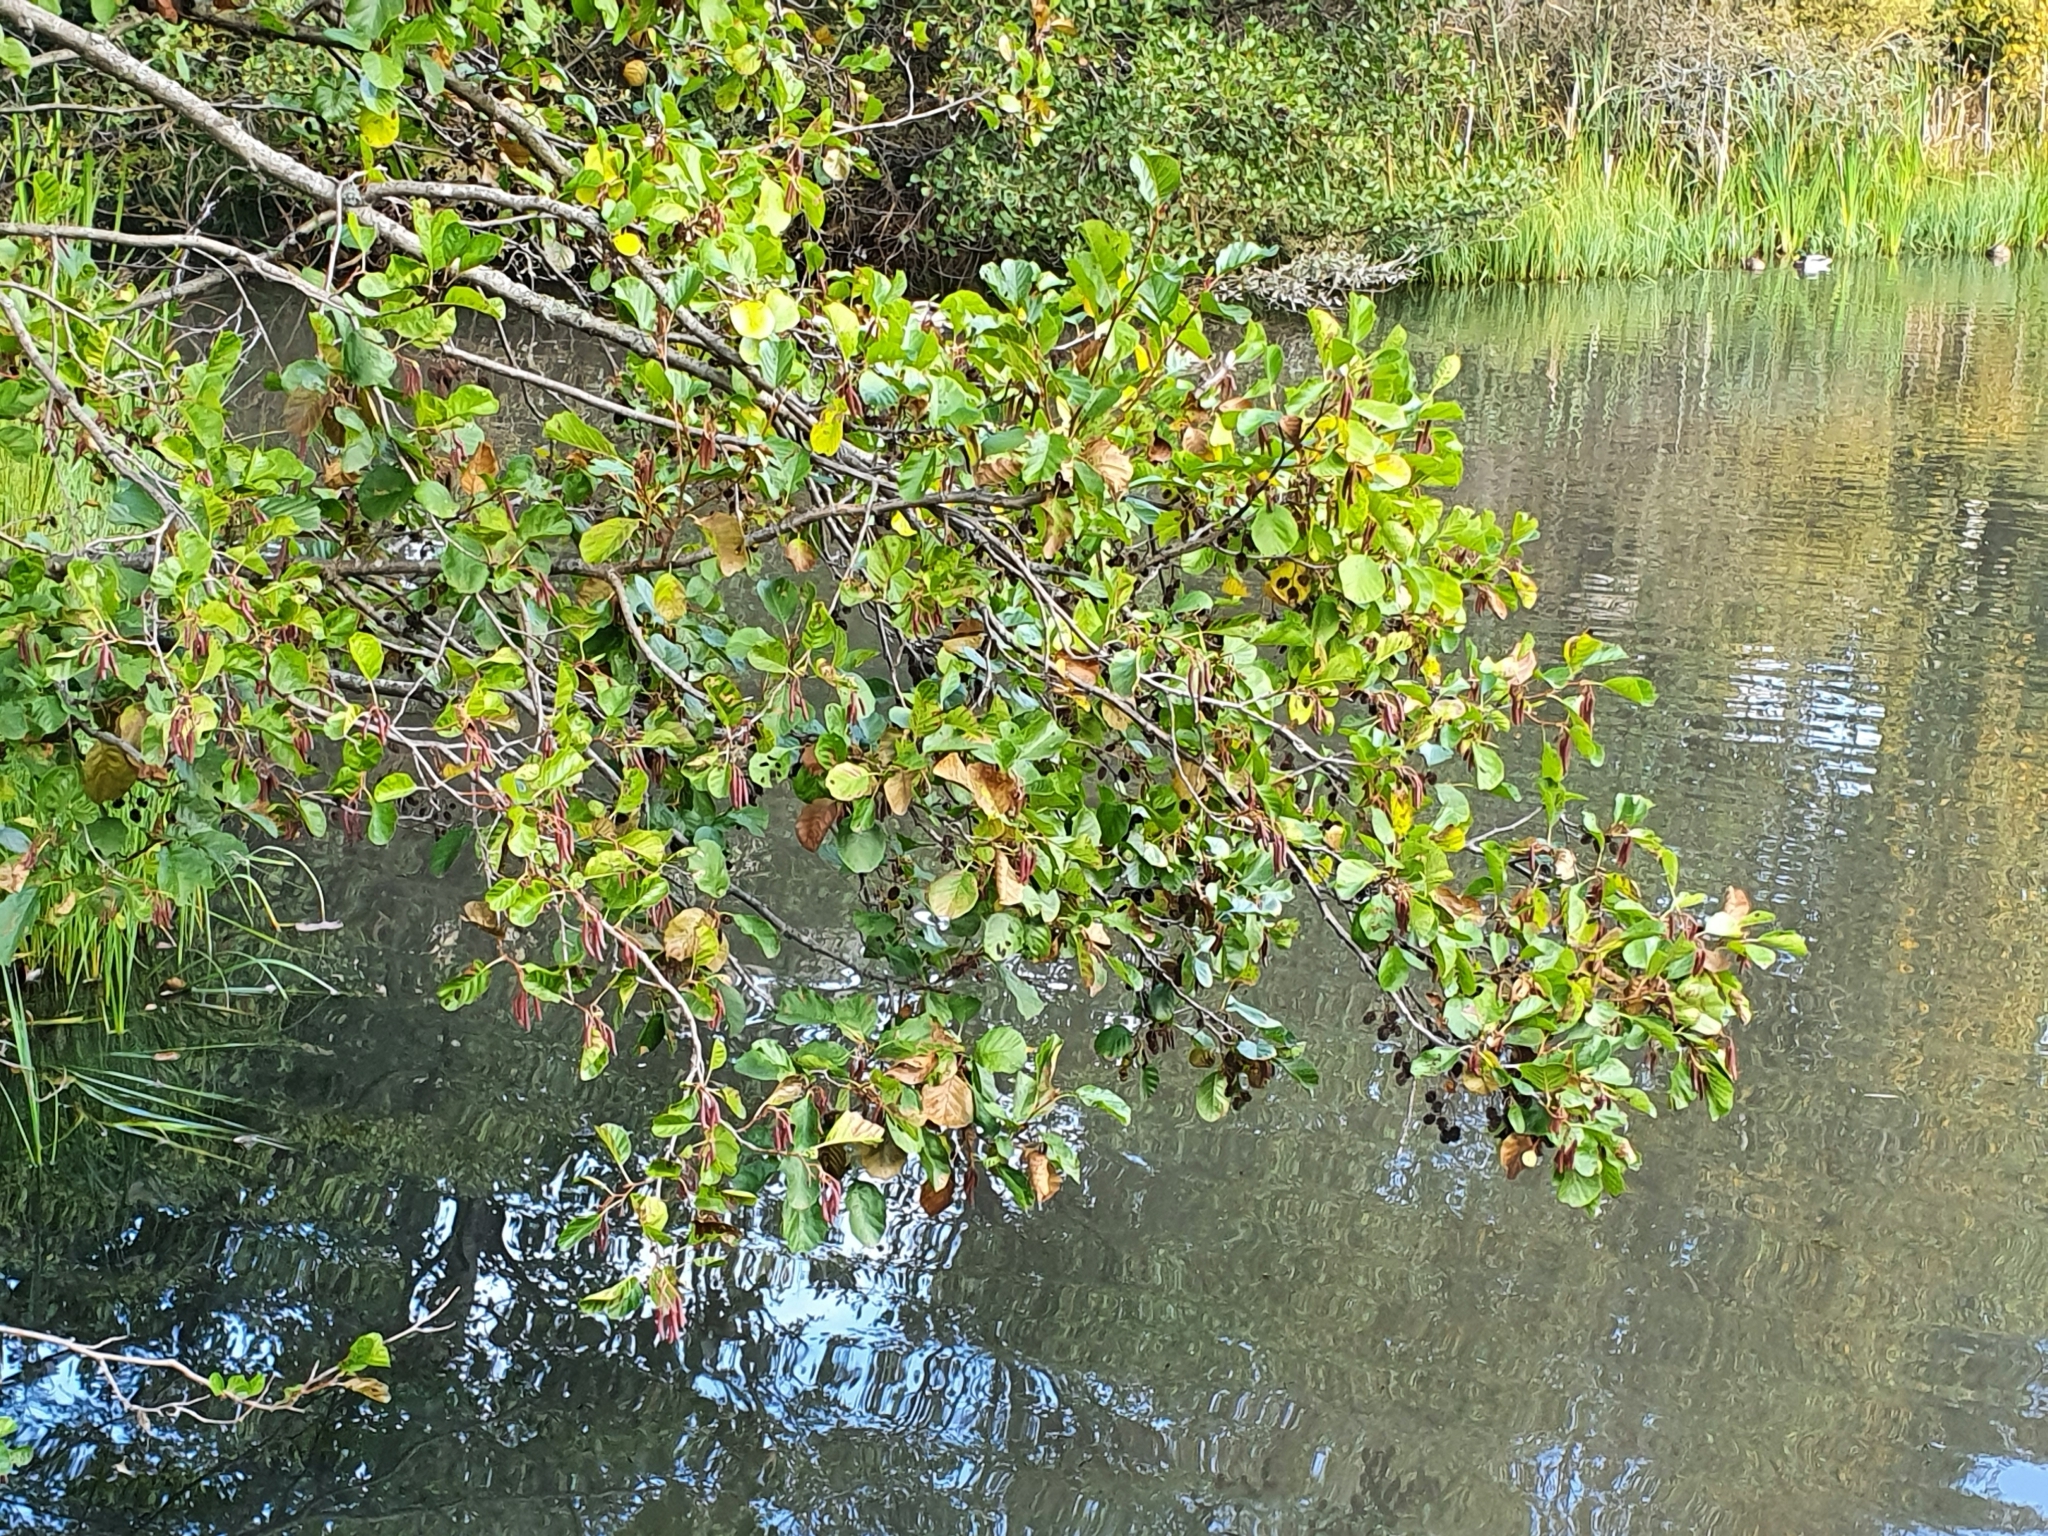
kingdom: Plantae
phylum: Tracheophyta
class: Magnoliopsida
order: Fagales
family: Betulaceae
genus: Alnus
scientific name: Alnus glutinosa
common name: Black alder
